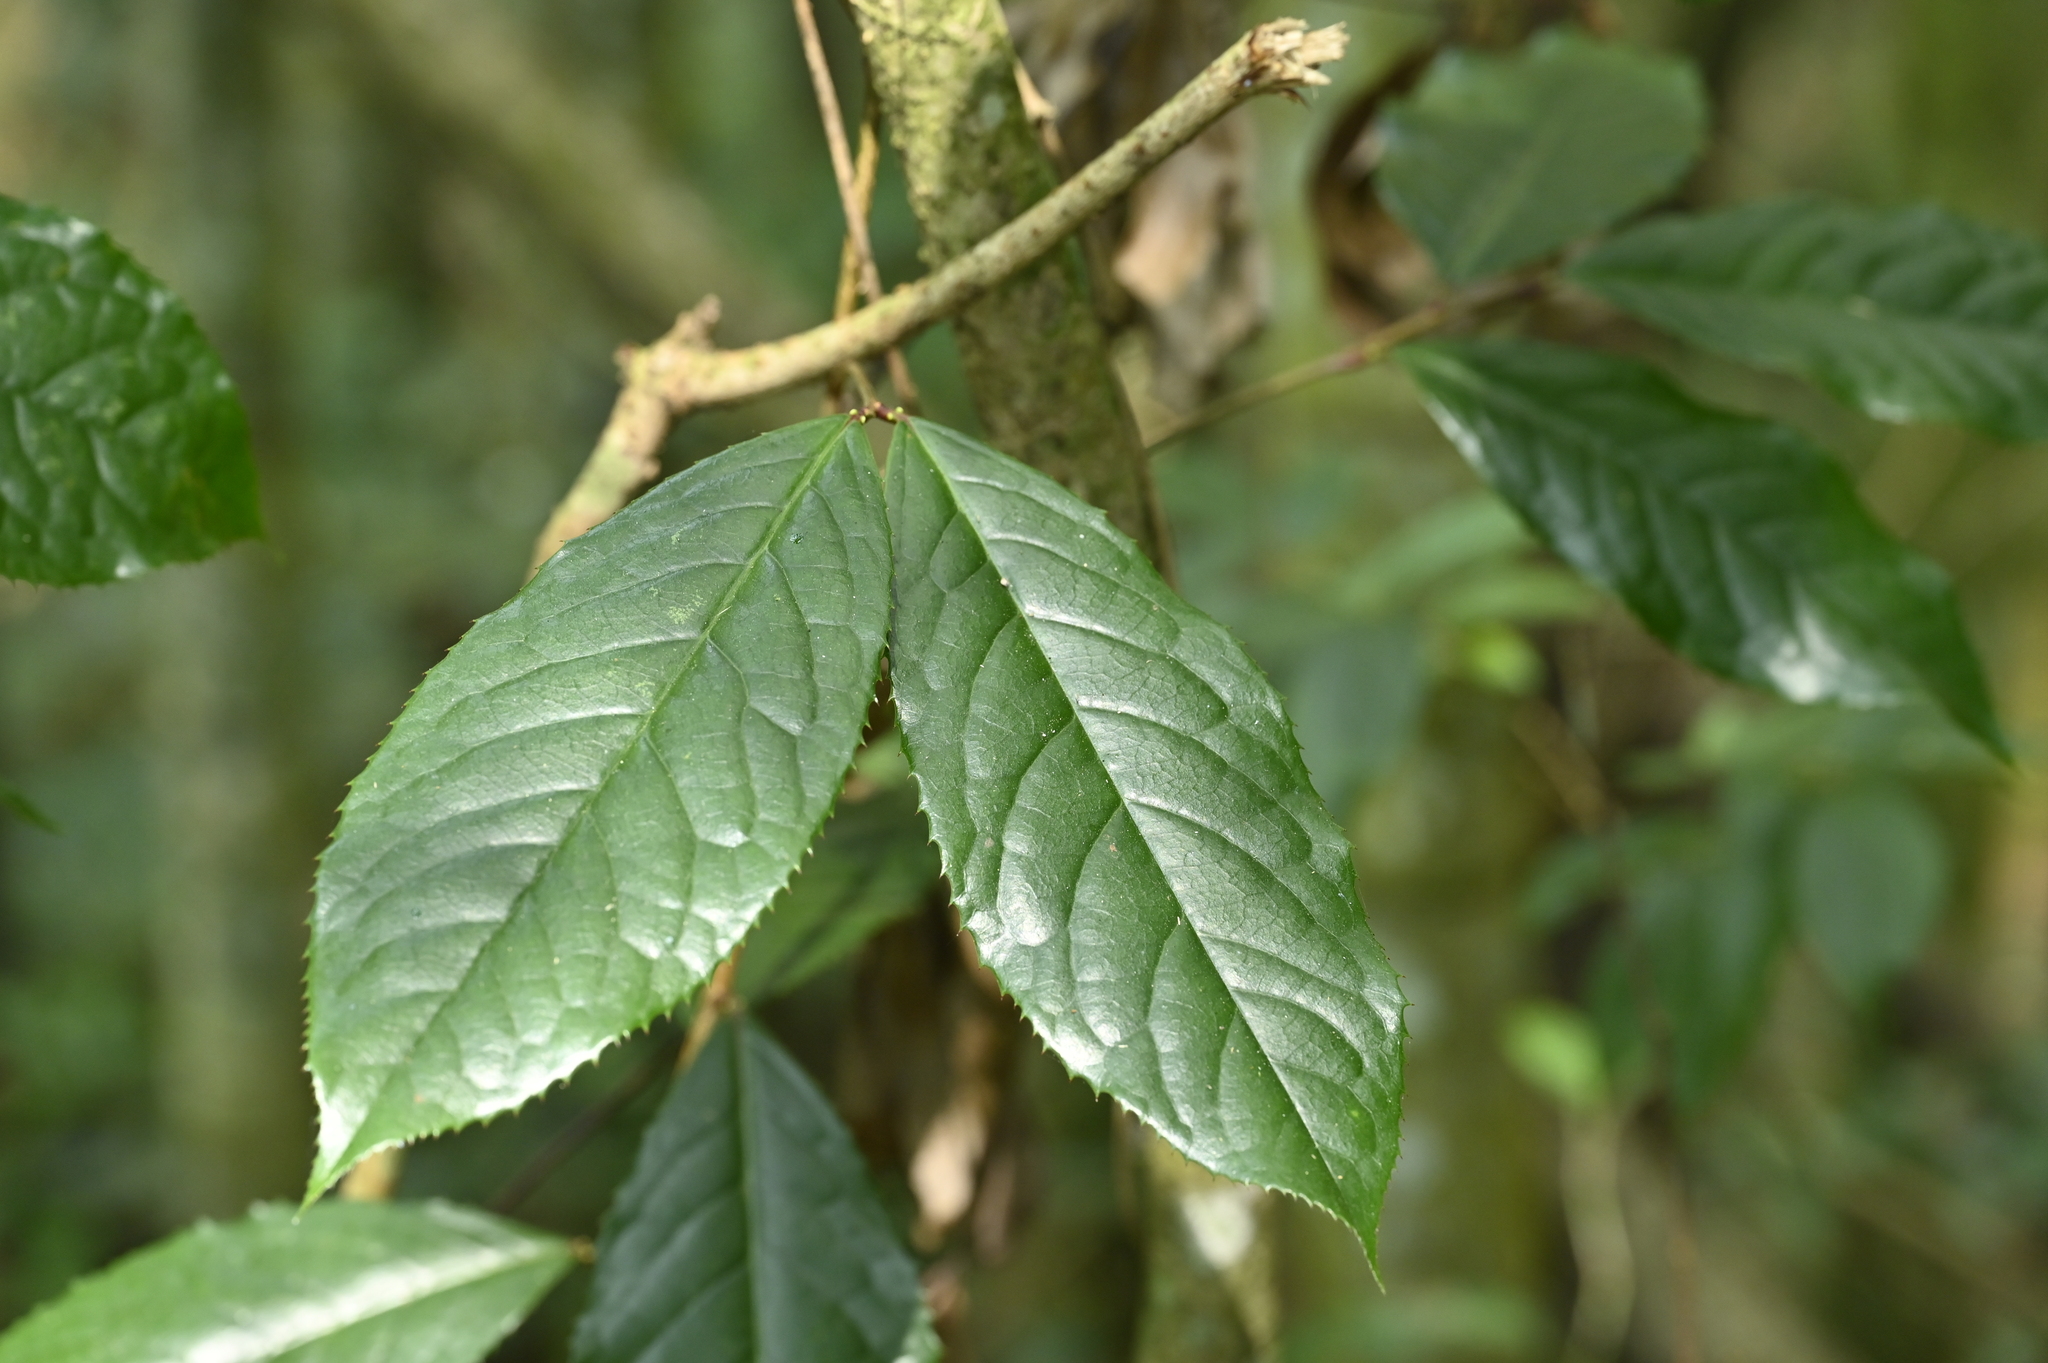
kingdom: Plantae
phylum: Tracheophyta
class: Magnoliopsida
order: Rosales
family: Rosaceae
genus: Prunus
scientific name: Prunus zippeliana
